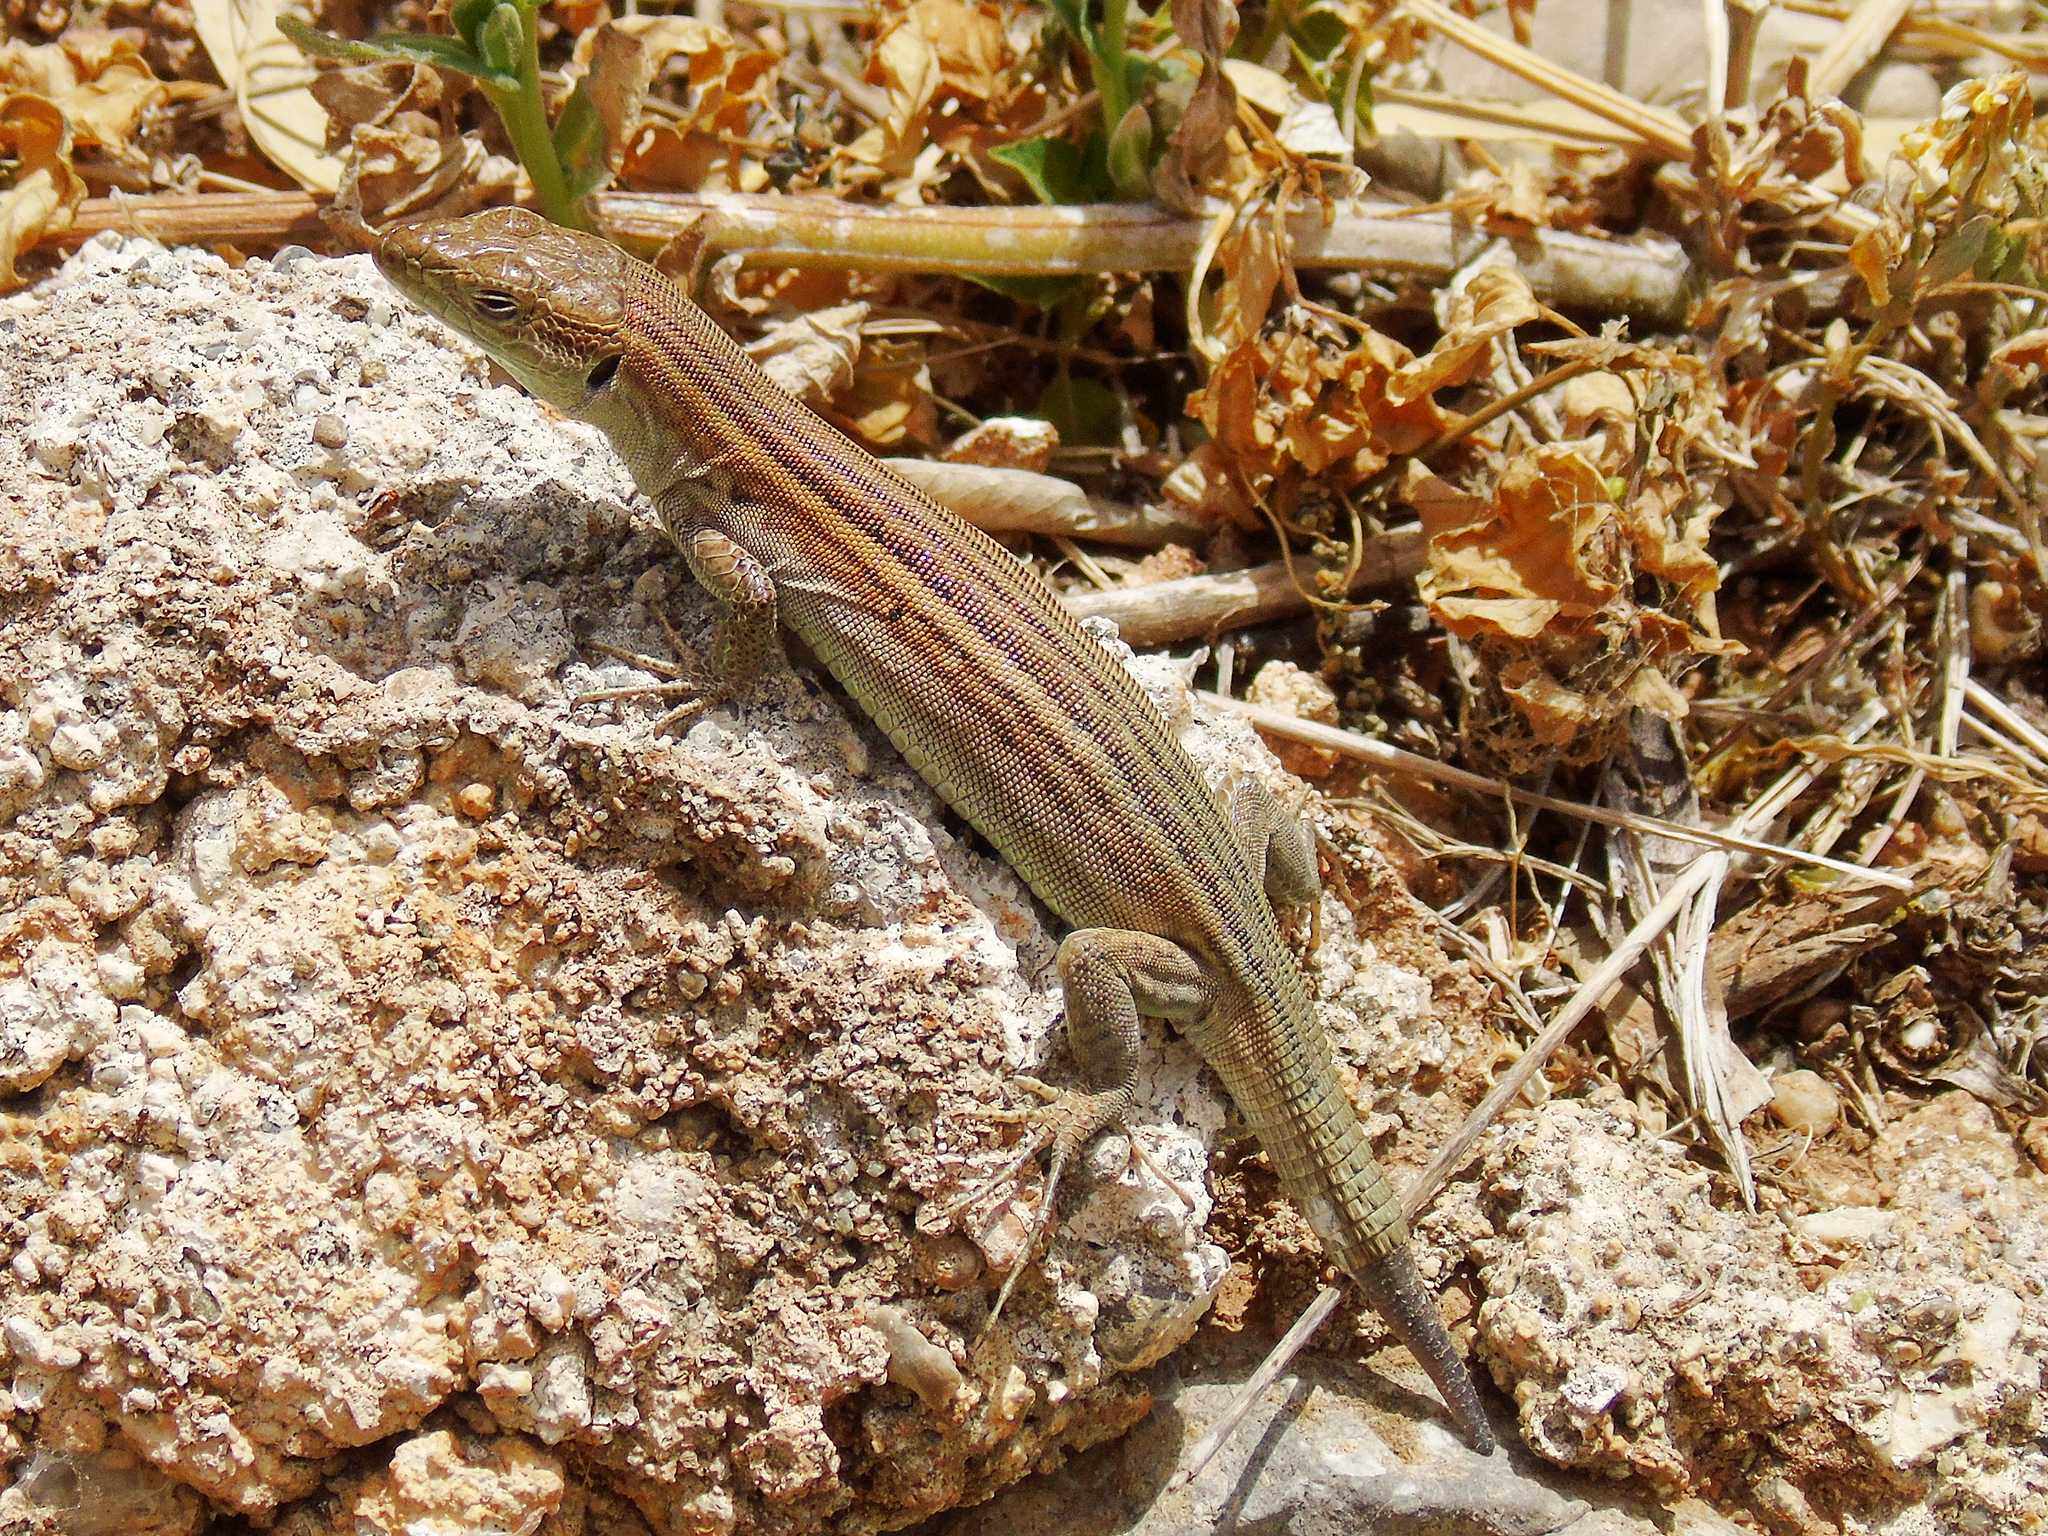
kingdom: Animalia
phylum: Chordata
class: Squamata
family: Lacertidae
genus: Podarcis
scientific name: Podarcis peloponnesiacus
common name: Peloponnese wall lizard
